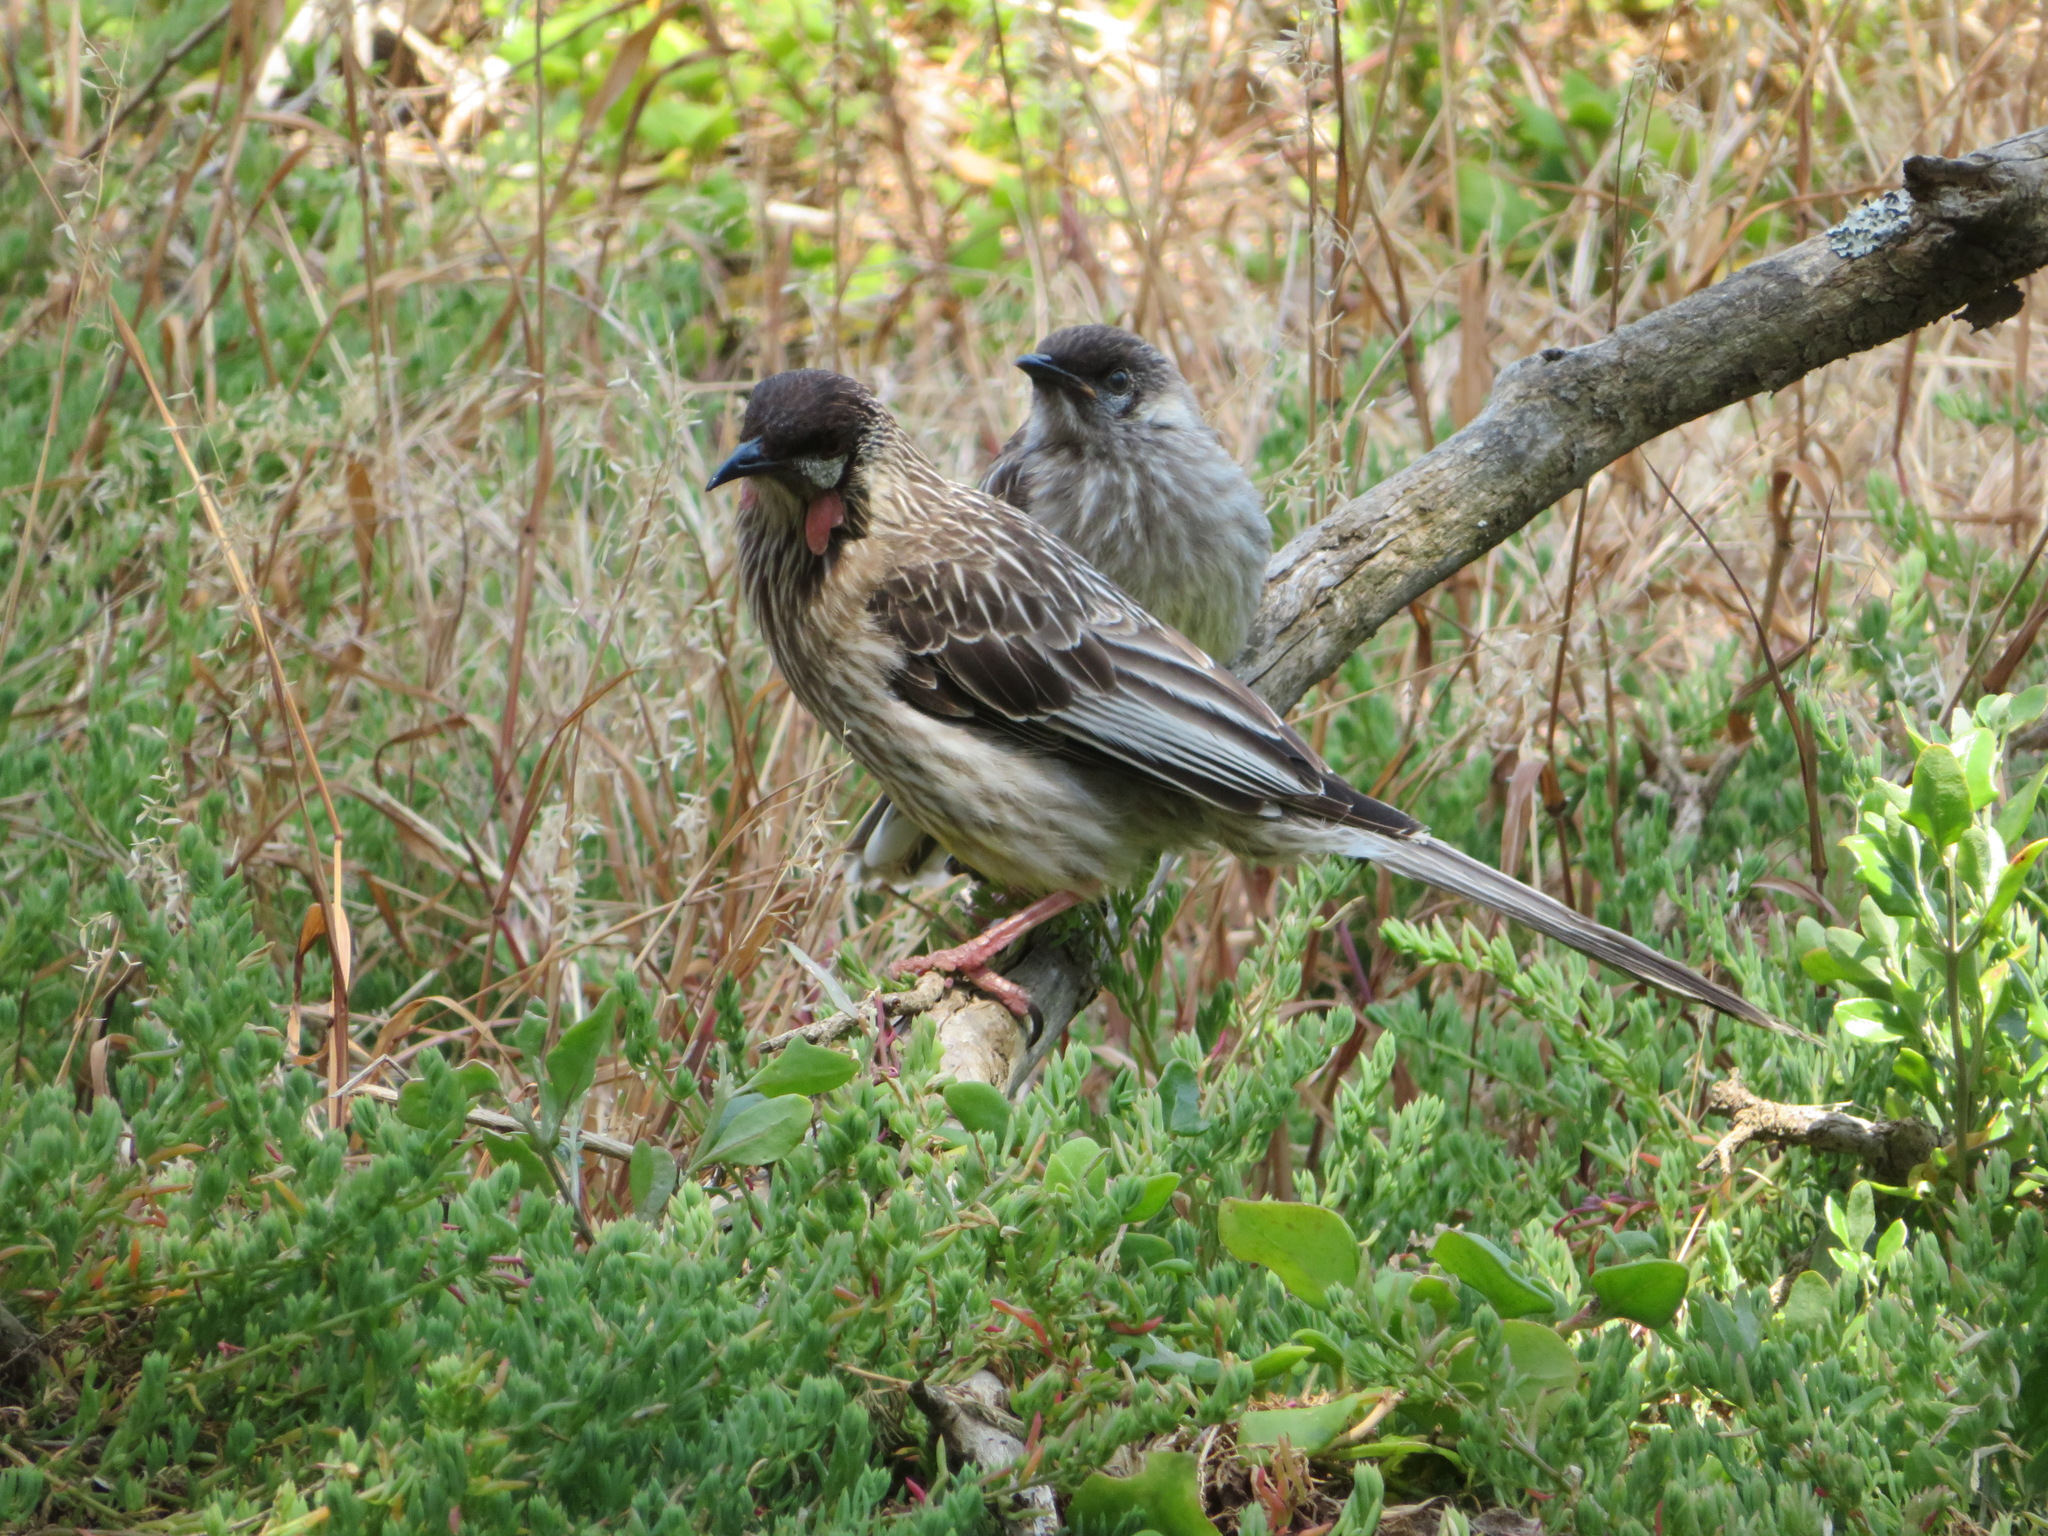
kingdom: Animalia
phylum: Chordata
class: Aves
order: Passeriformes
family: Meliphagidae
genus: Anthochaera
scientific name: Anthochaera carunculata
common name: Red wattlebird
